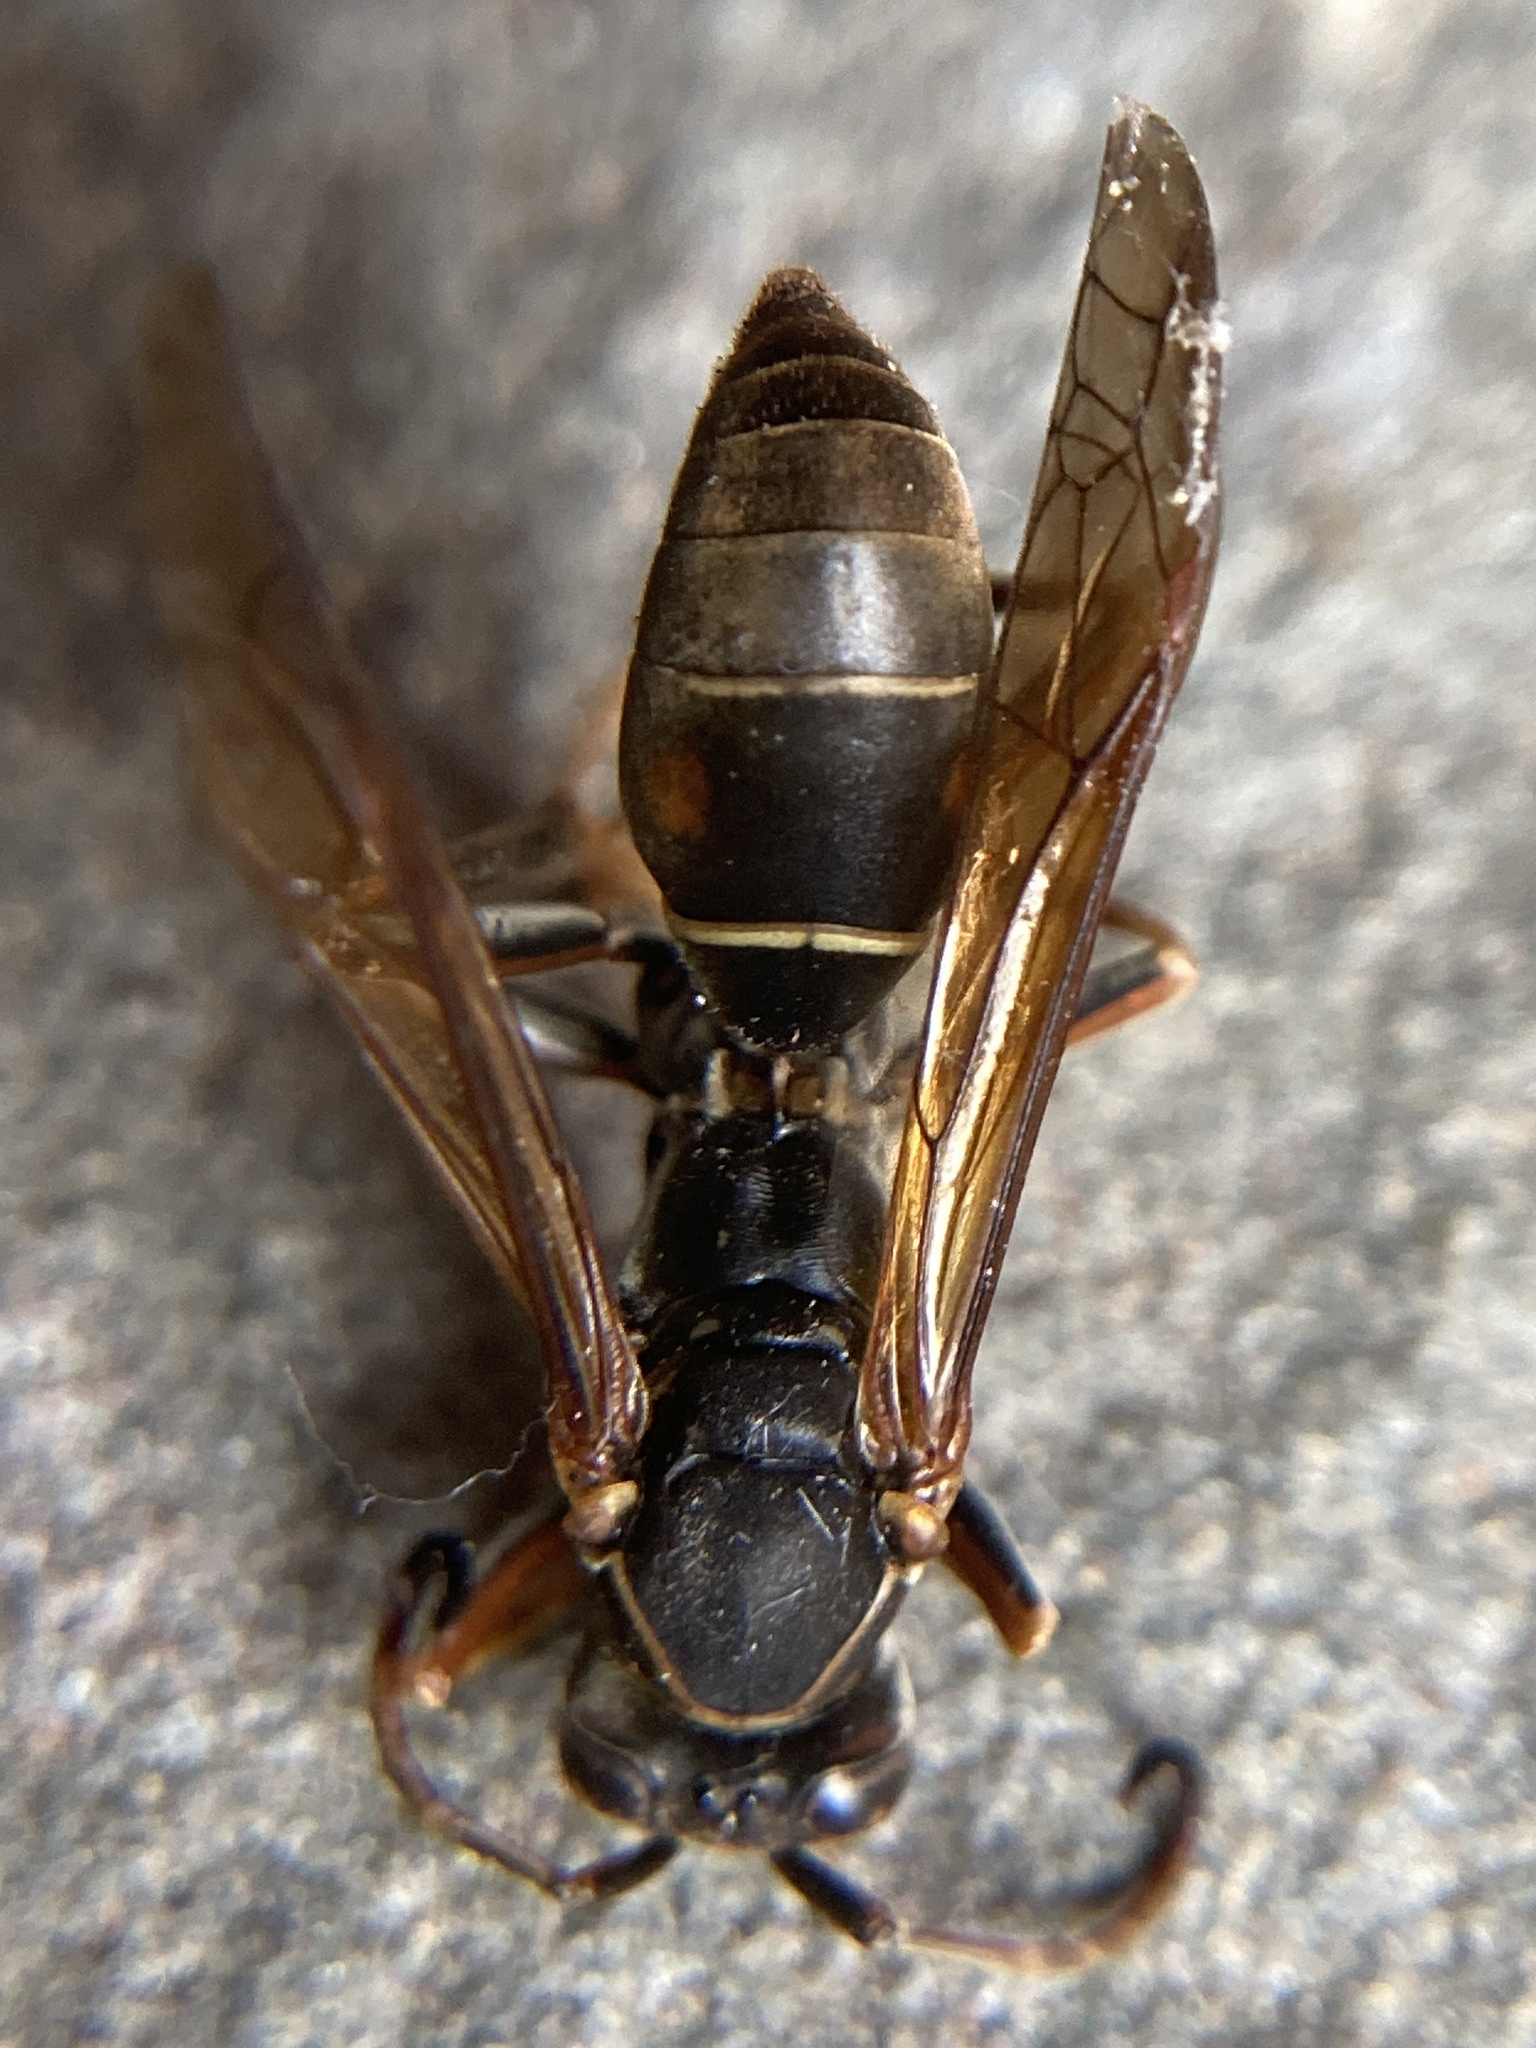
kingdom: Animalia
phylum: Arthropoda
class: Insecta
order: Hymenoptera
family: Eumenidae
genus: Polistes
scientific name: Polistes fuscatus
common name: Dark paper wasp
